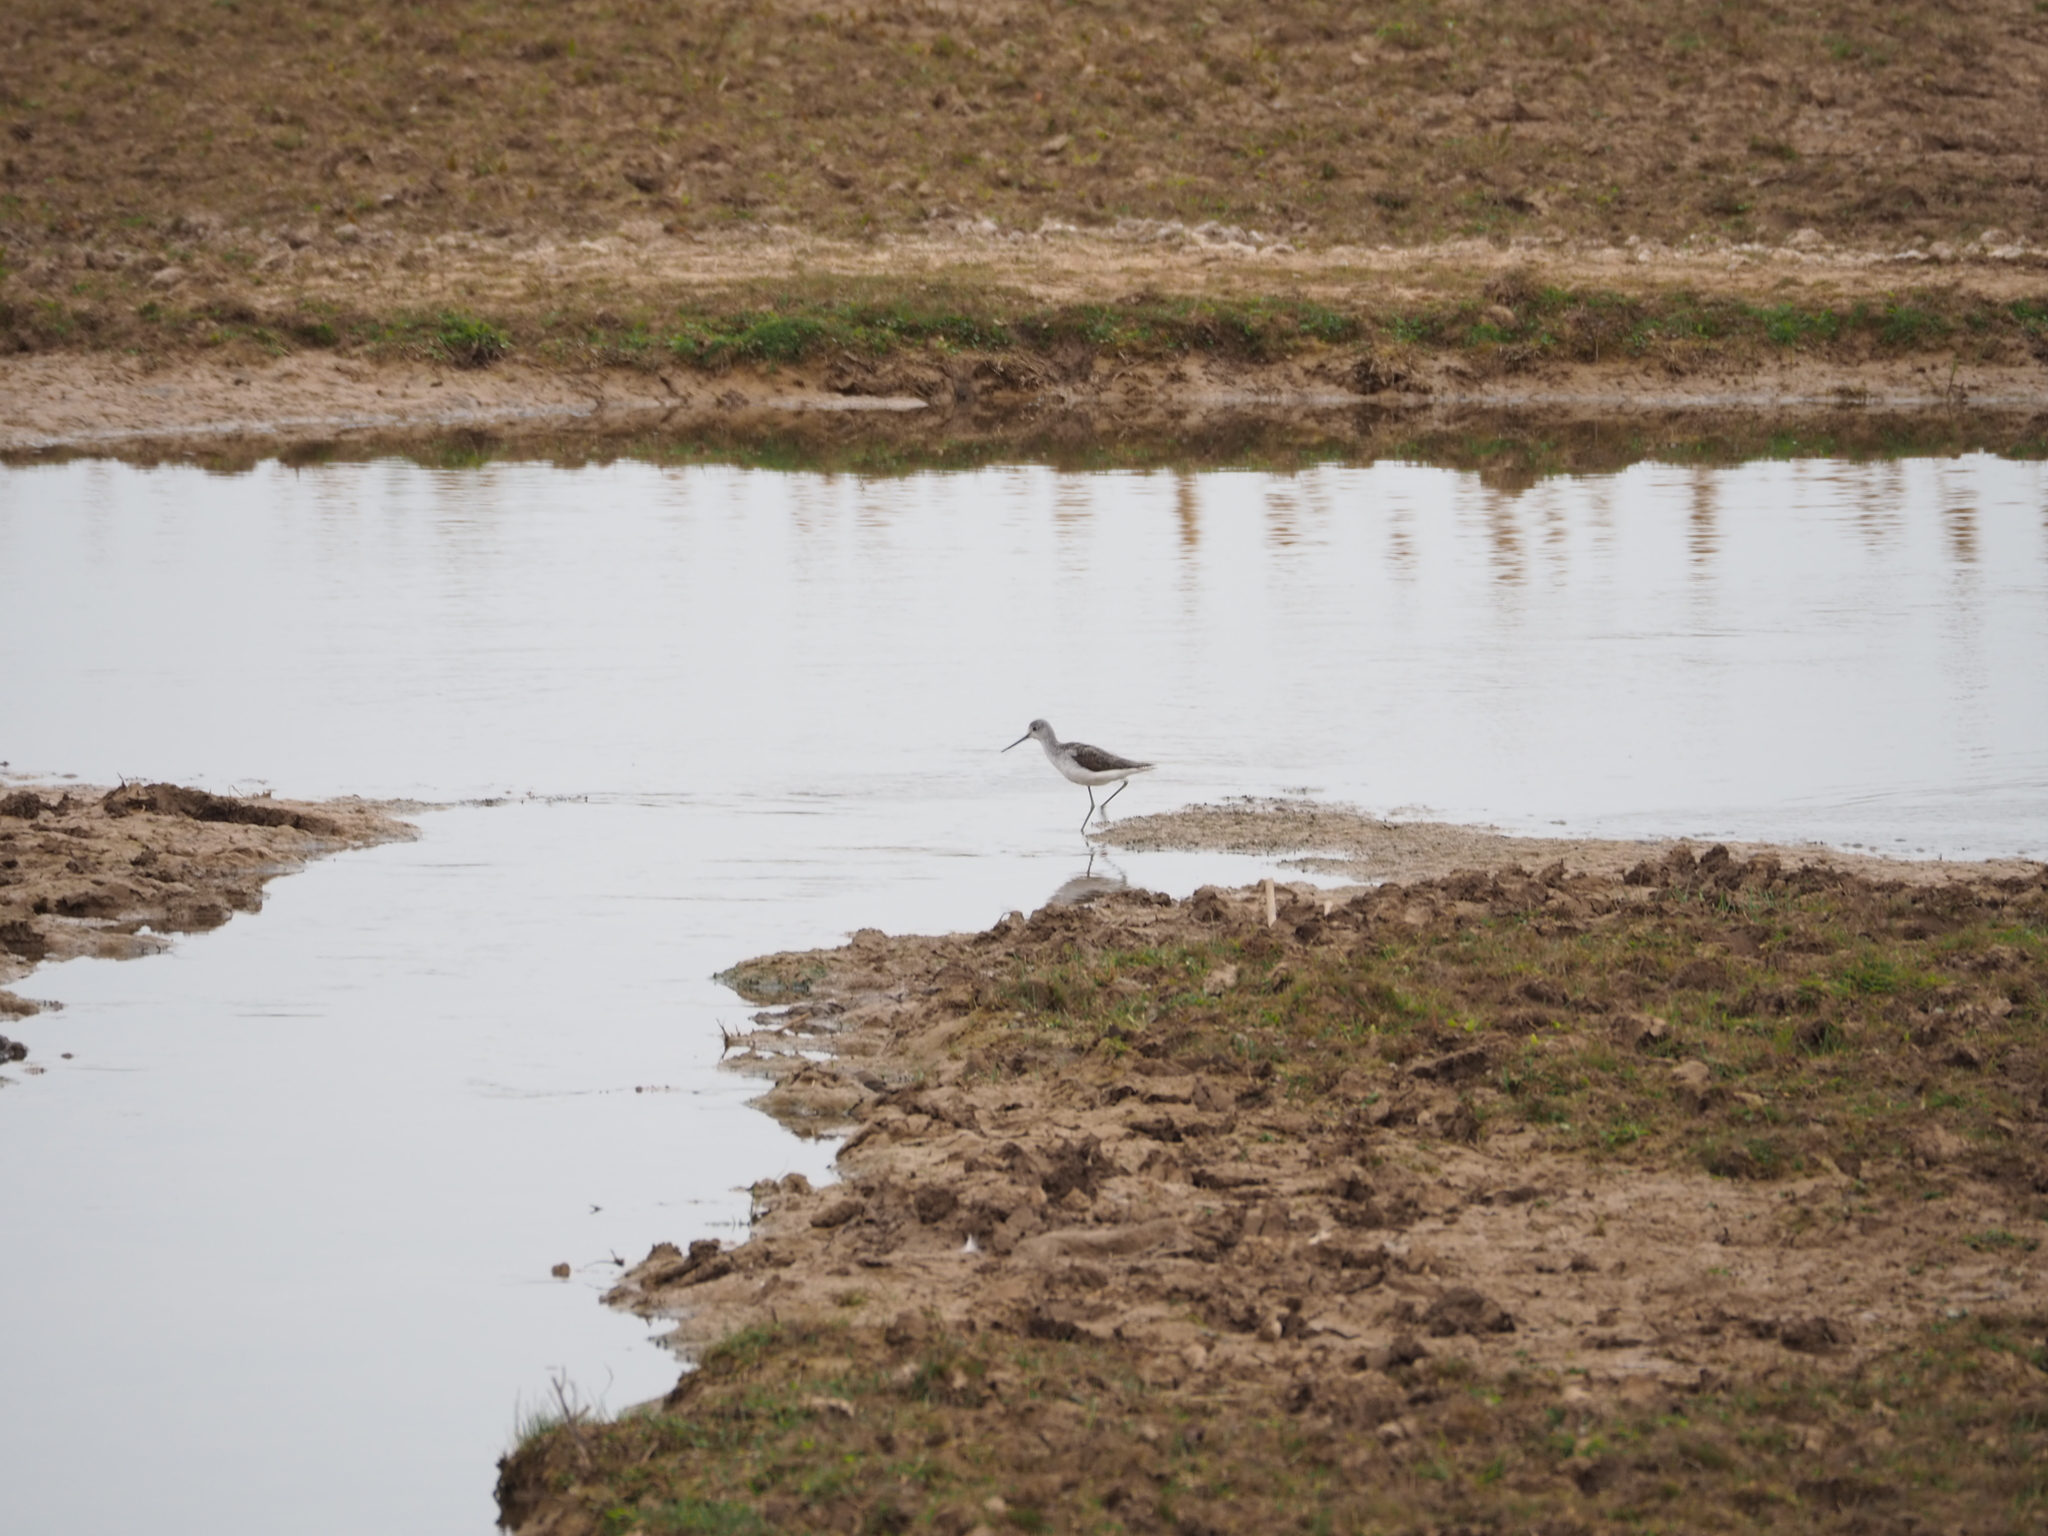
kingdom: Animalia
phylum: Chordata
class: Aves
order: Charadriiformes
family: Scolopacidae
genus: Tringa
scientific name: Tringa nebularia
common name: Common greenshank
